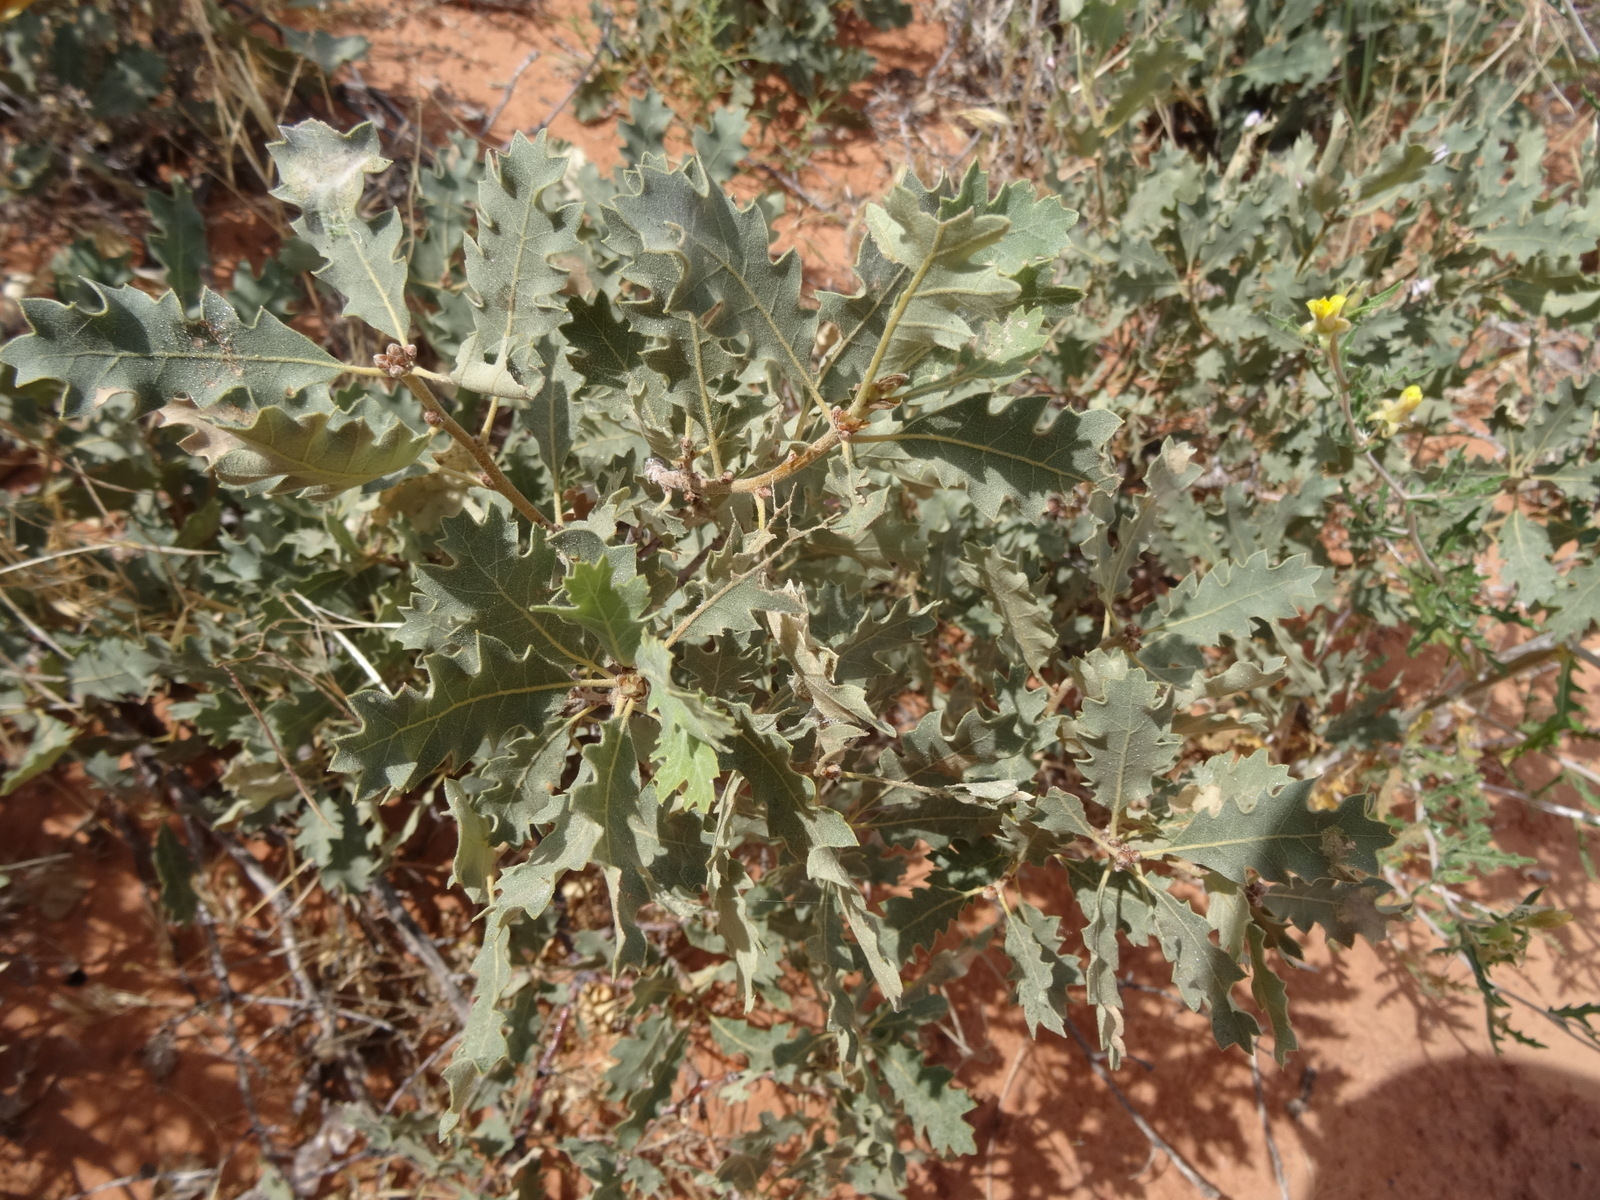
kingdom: Plantae
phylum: Tracheophyta
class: Magnoliopsida
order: Fagales
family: Fagaceae
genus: Quercus
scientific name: Quercus welshii
